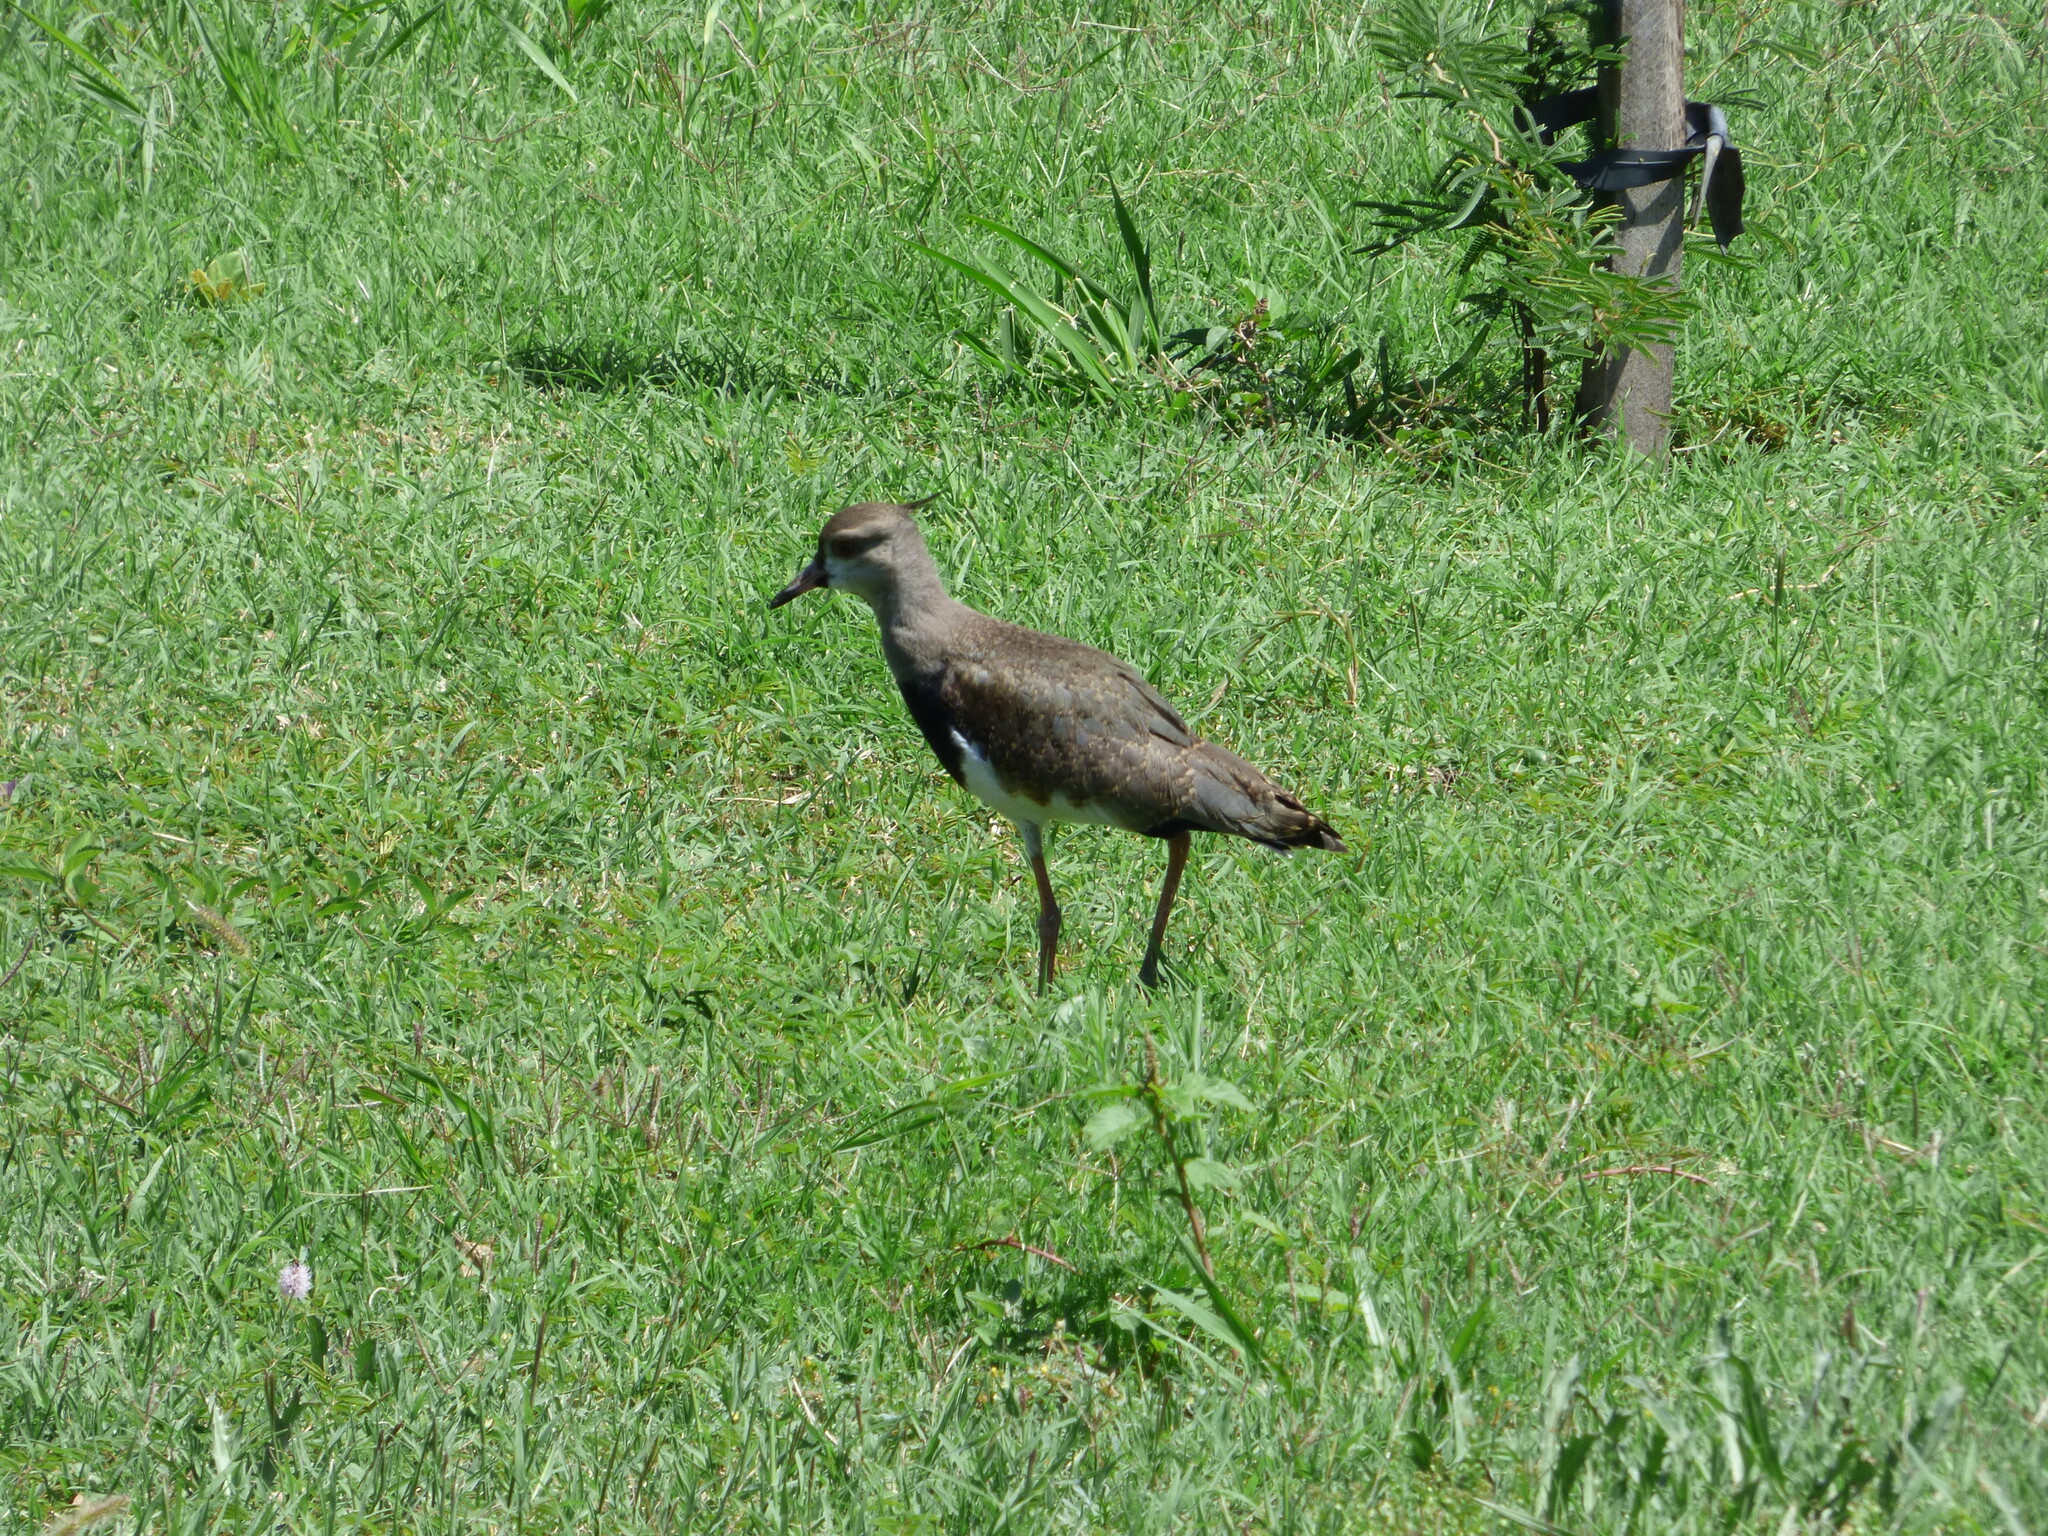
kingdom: Animalia
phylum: Chordata
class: Aves
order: Charadriiformes
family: Charadriidae
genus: Vanellus
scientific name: Vanellus chilensis
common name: Southern lapwing
